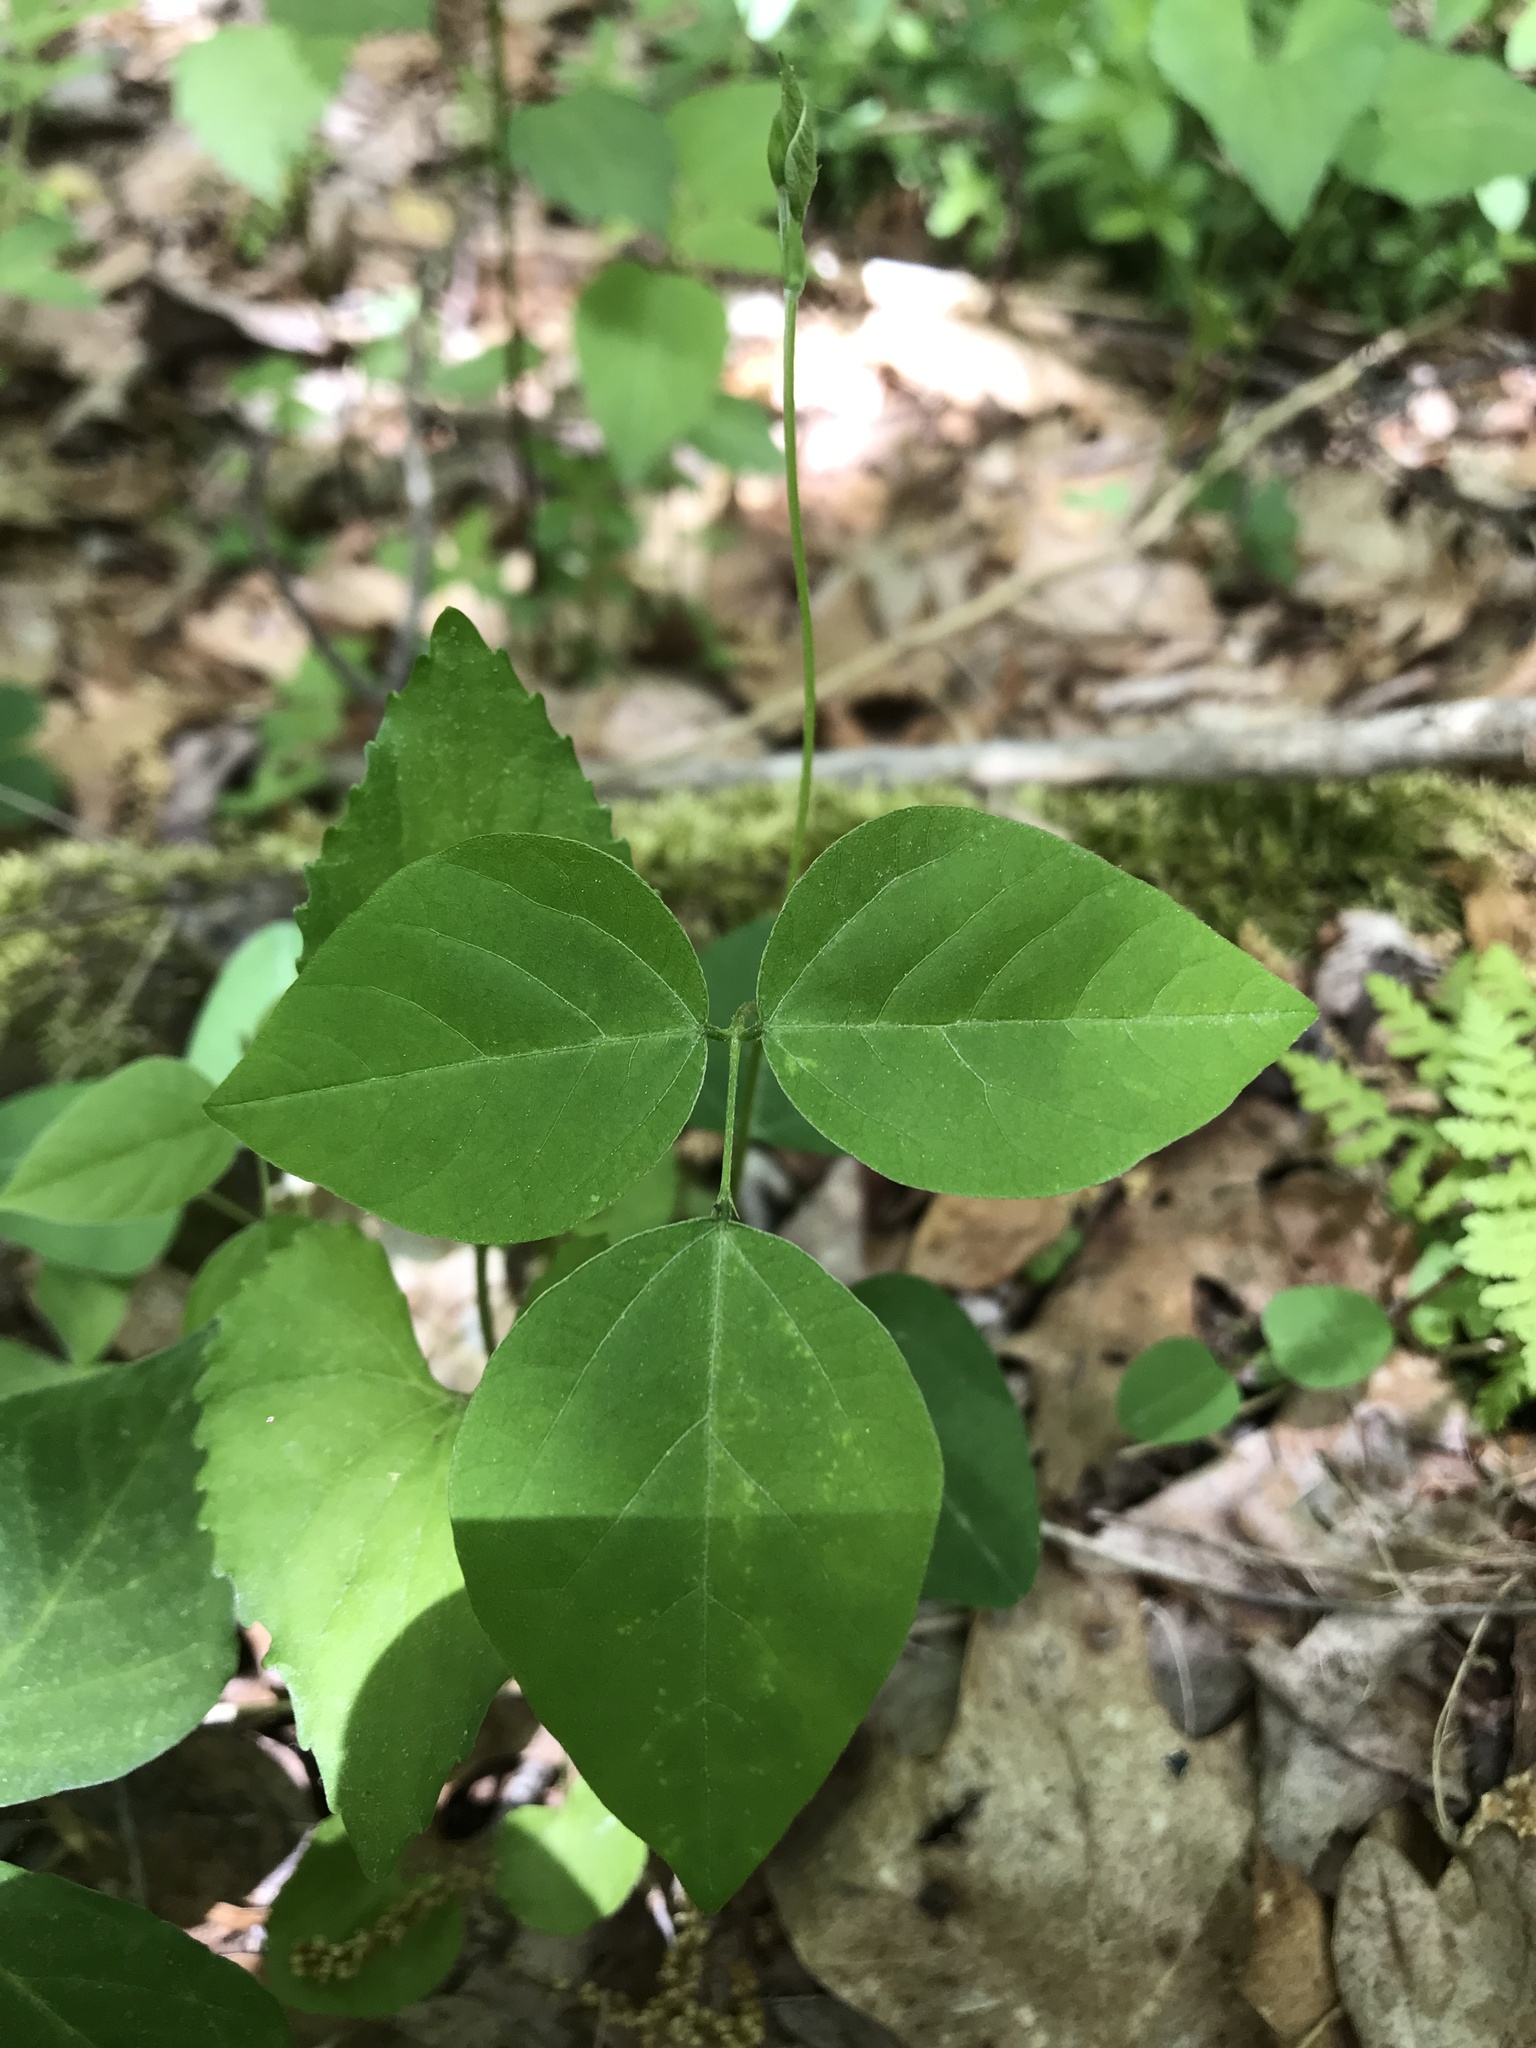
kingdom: Plantae
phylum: Tracheophyta
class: Magnoliopsida
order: Fabales
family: Fabaceae
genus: Amphicarpaea
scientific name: Amphicarpaea bracteata
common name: American hog peanut
